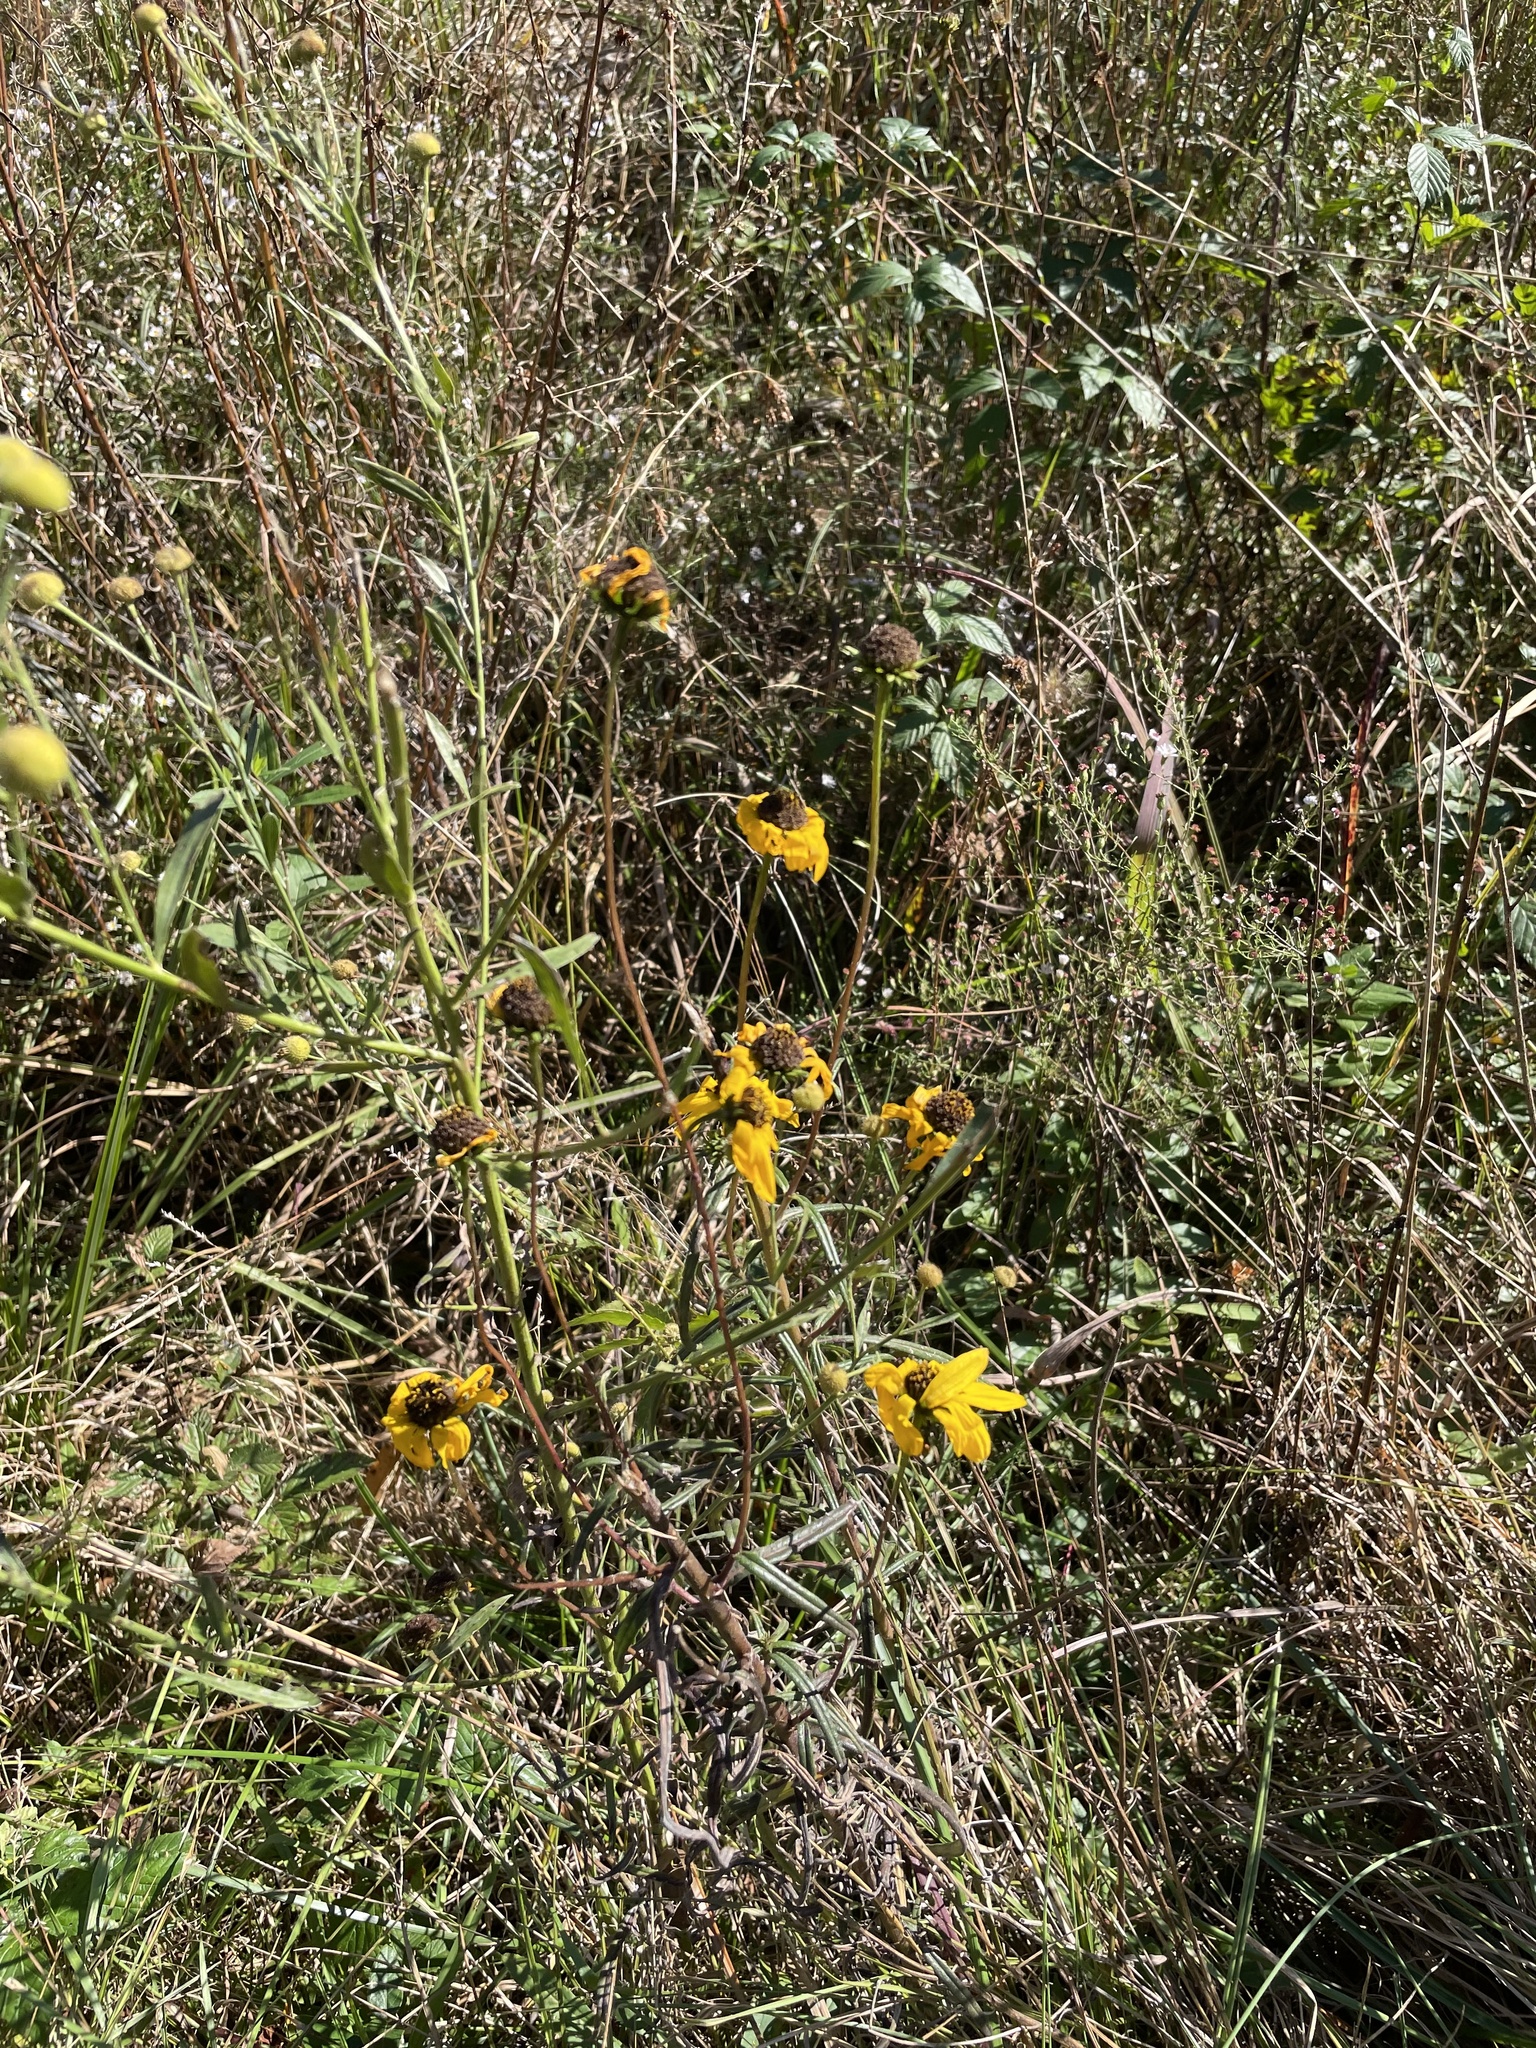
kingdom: Plantae
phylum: Tracheophyta
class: Magnoliopsida
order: Asterales
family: Asteraceae
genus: Helianthus
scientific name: Helianthus angustifolius
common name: Swamp sunflower
